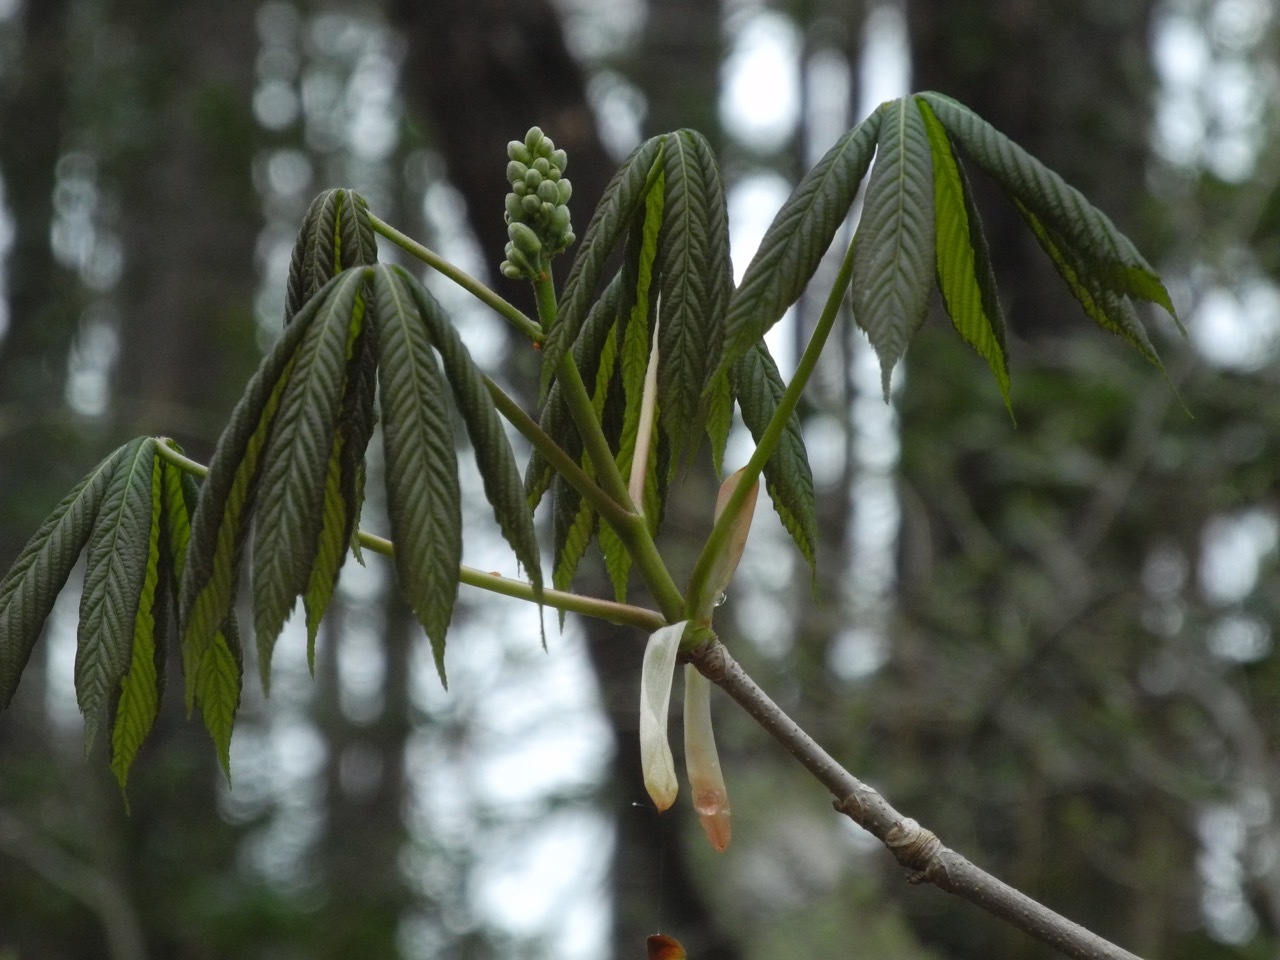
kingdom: Plantae
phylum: Tracheophyta
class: Magnoliopsida
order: Sapindales
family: Sapindaceae
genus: Aesculus
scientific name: Aesculus sylvatica
